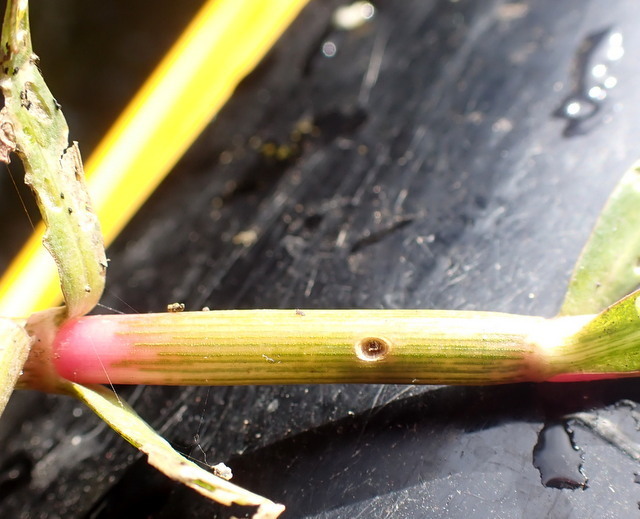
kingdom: Animalia
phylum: Arthropoda
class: Insecta
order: Coleoptera
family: Chrysomelidae
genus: Agasicles
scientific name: Agasicles hygrophila
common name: Alligatorweed flea beetle
